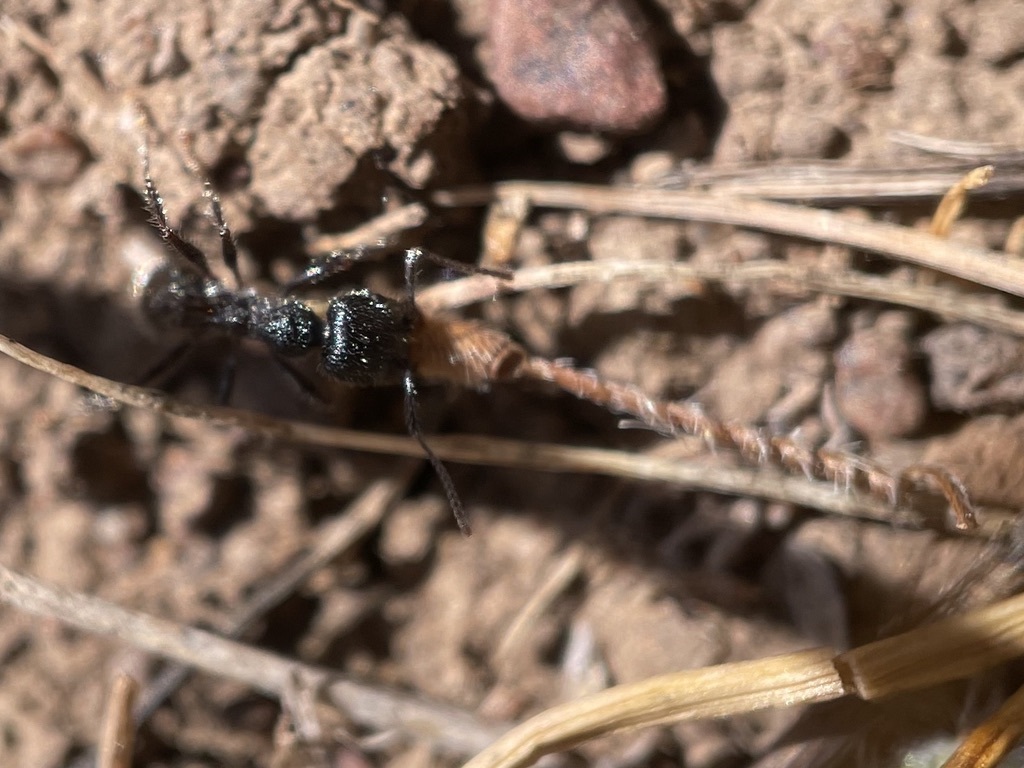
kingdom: Animalia
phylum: Arthropoda
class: Insecta
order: Hymenoptera
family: Formicidae
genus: Veromessor
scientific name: Veromessor andrei
